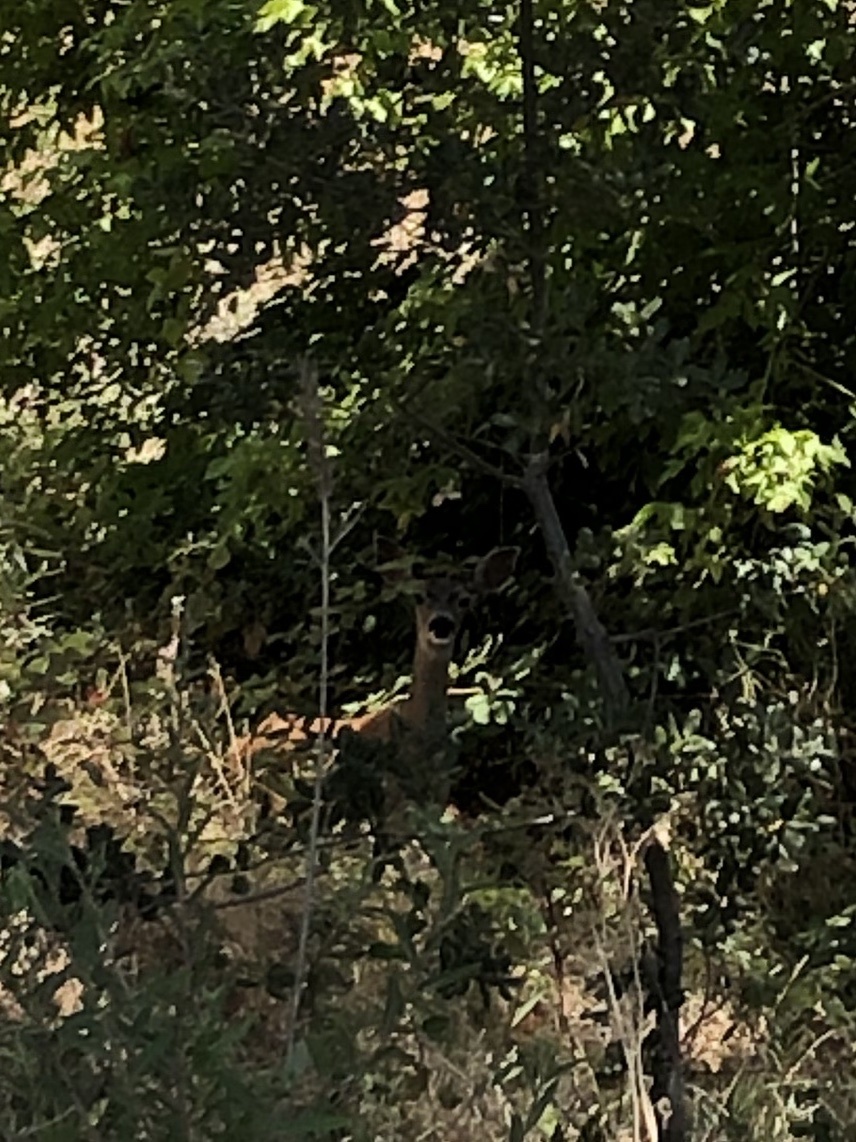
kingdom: Animalia
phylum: Chordata
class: Mammalia
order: Artiodactyla
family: Cervidae
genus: Odocoileus
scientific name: Odocoileus hemionus
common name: Mule deer
